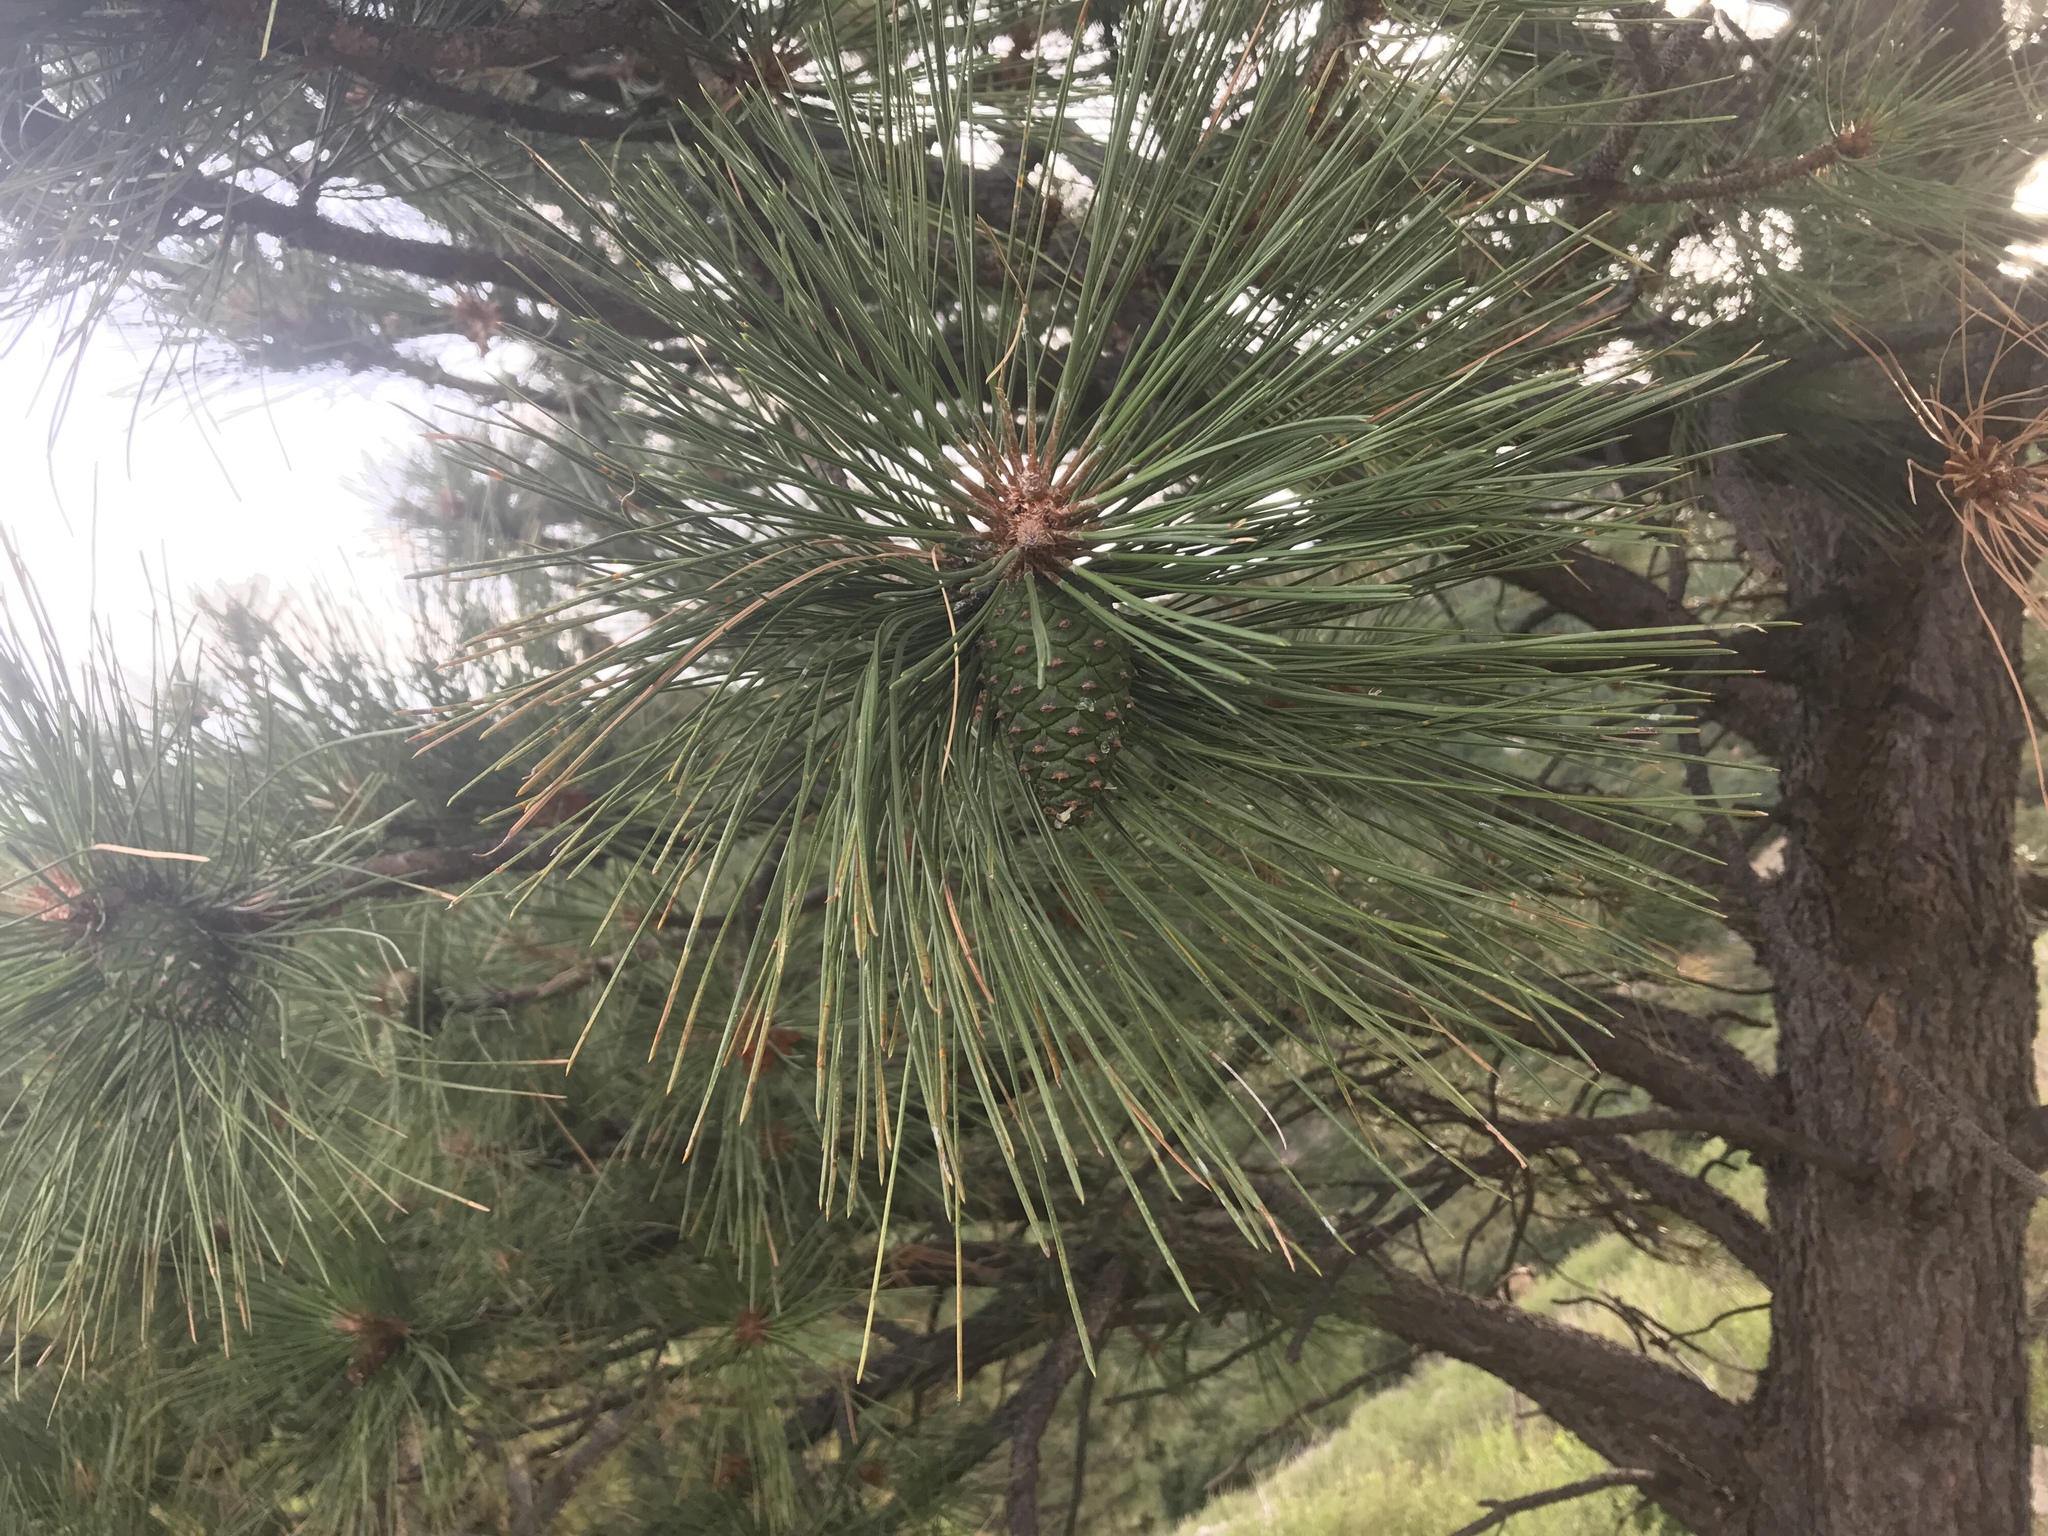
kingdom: Plantae
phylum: Tracheophyta
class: Pinopsida
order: Pinales
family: Pinaceae
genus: Pinus
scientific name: Pinus ponderosa
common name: Western yellow-pine
